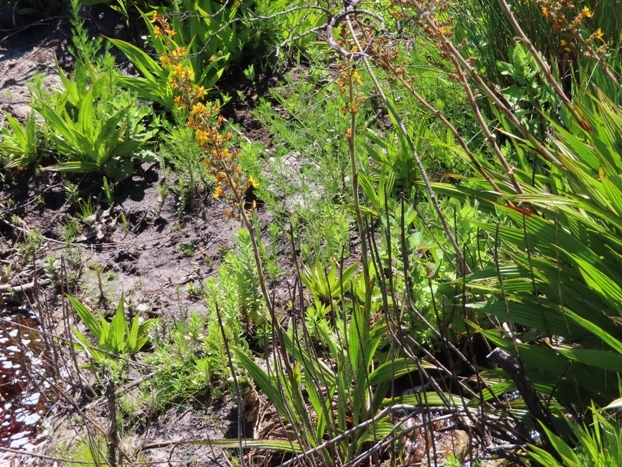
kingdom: Plantae
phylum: Tracheophyta
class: Liliopsida
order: Commelinales
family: Haemodoraceae
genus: Wachendorfia
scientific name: Wachendorfia thyrsiflora
